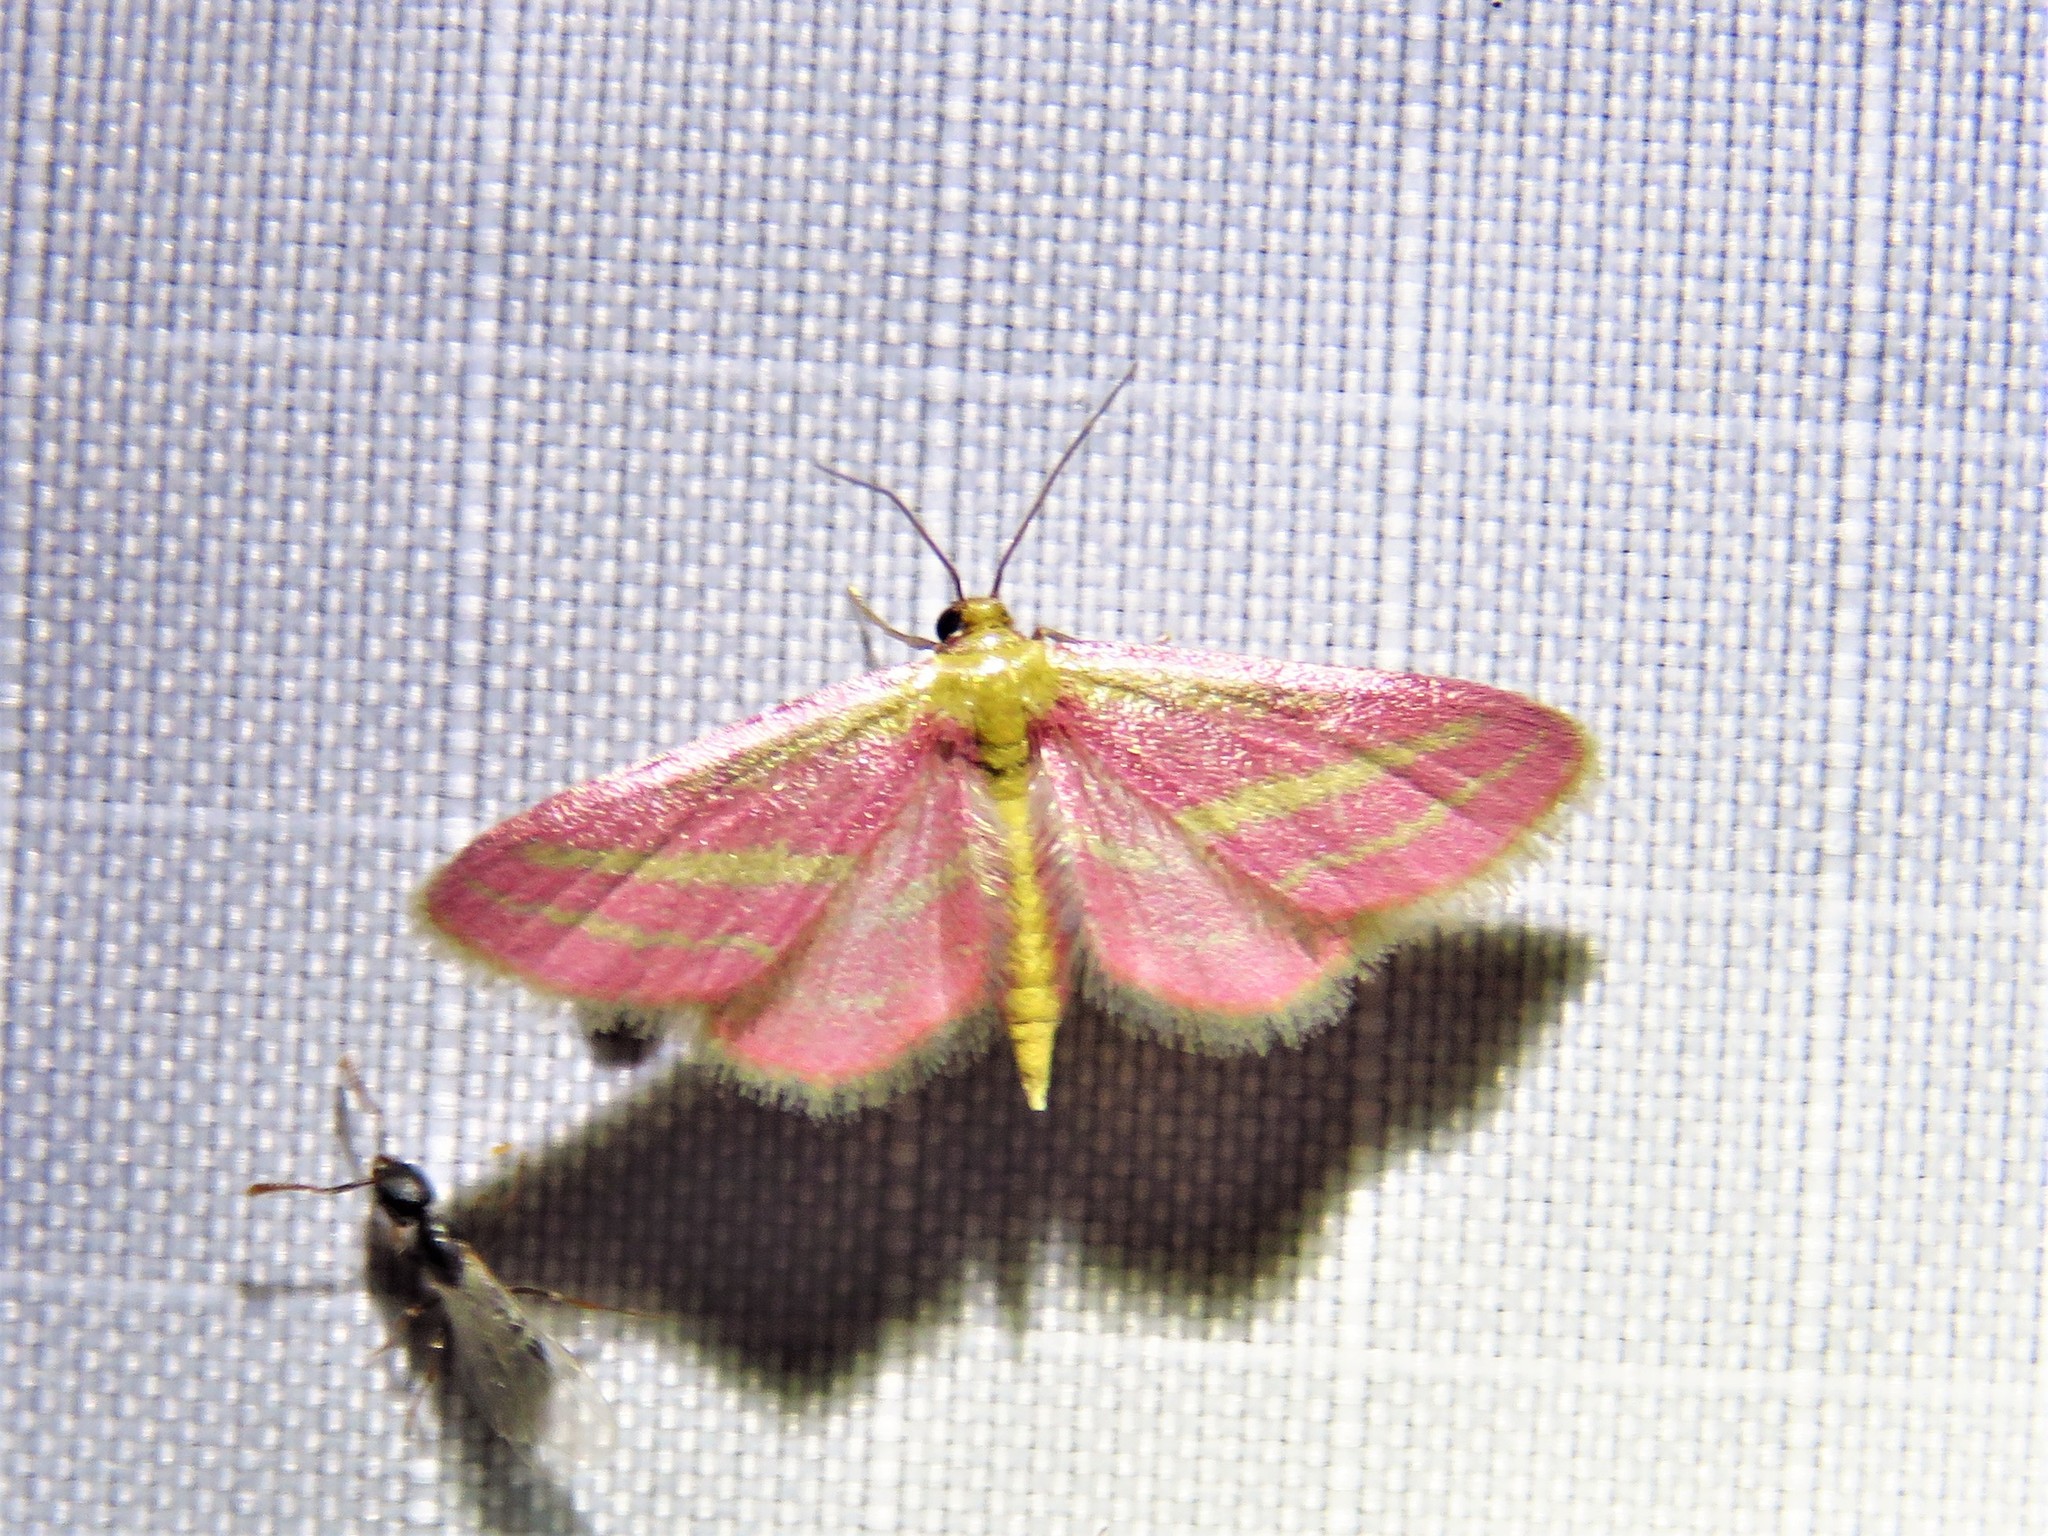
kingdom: Animalia
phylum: Arthropoda
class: Insecta
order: Lepidoptera
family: Geometridae
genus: Leptostales
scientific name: Leptostales laevitaria
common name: Raspberry wave moth
